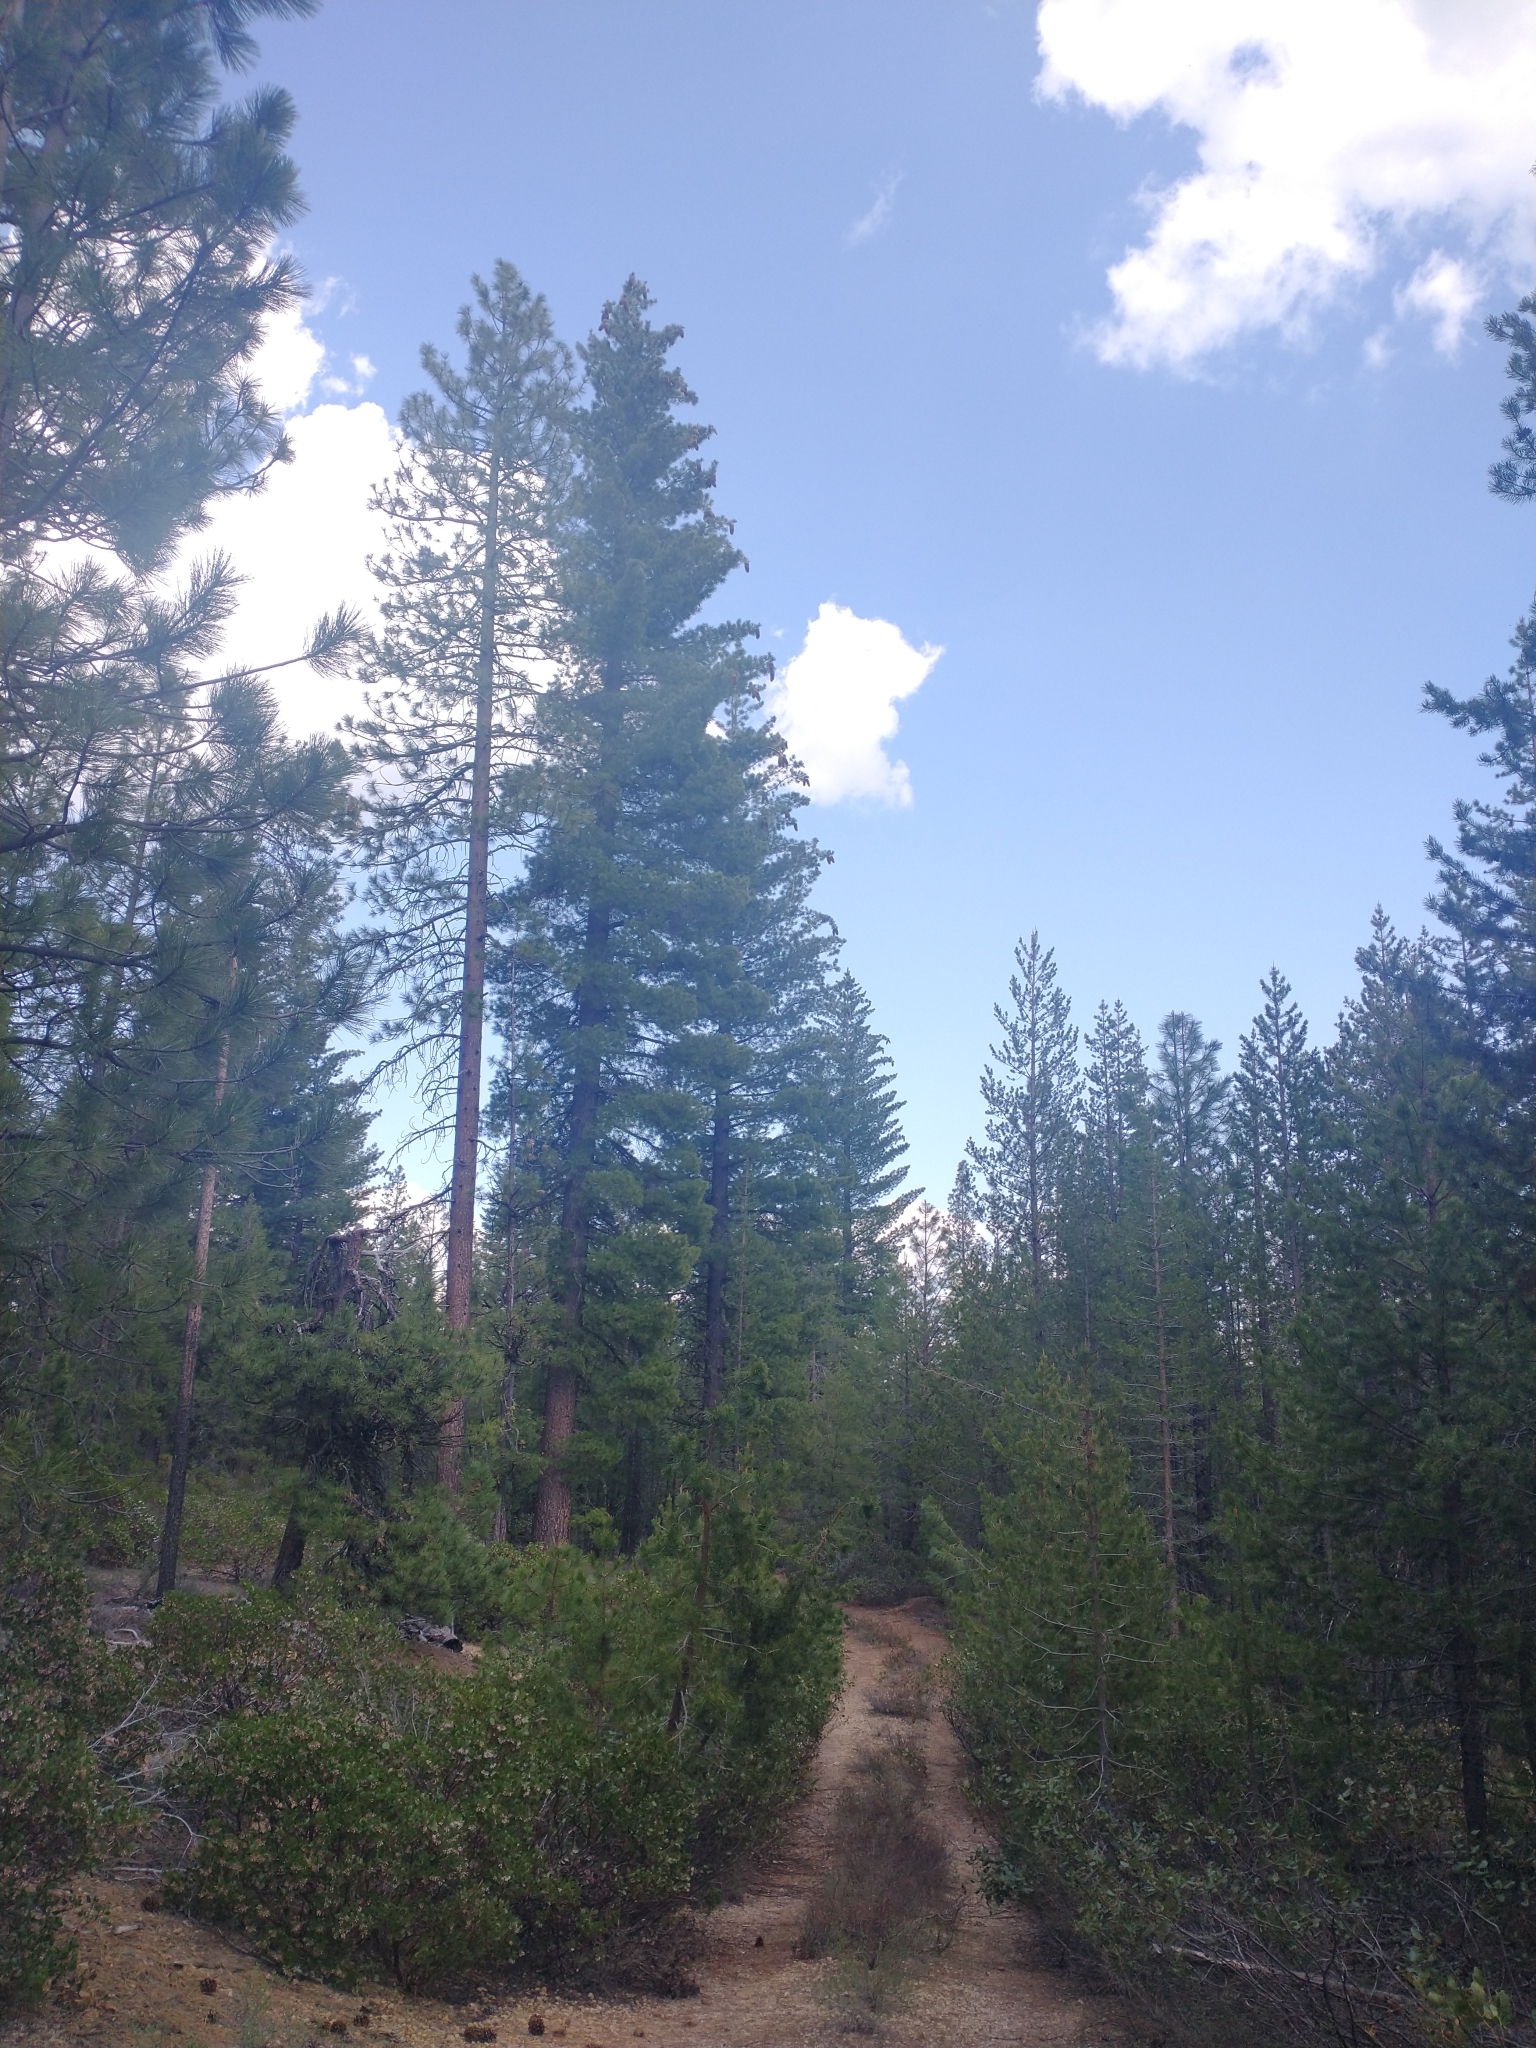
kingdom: Plantae
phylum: Tracheophyta
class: Pinopsida
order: Pinales
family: Pinaceae
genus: Pinus
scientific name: Pinus lambertiana
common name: Sugar pine
